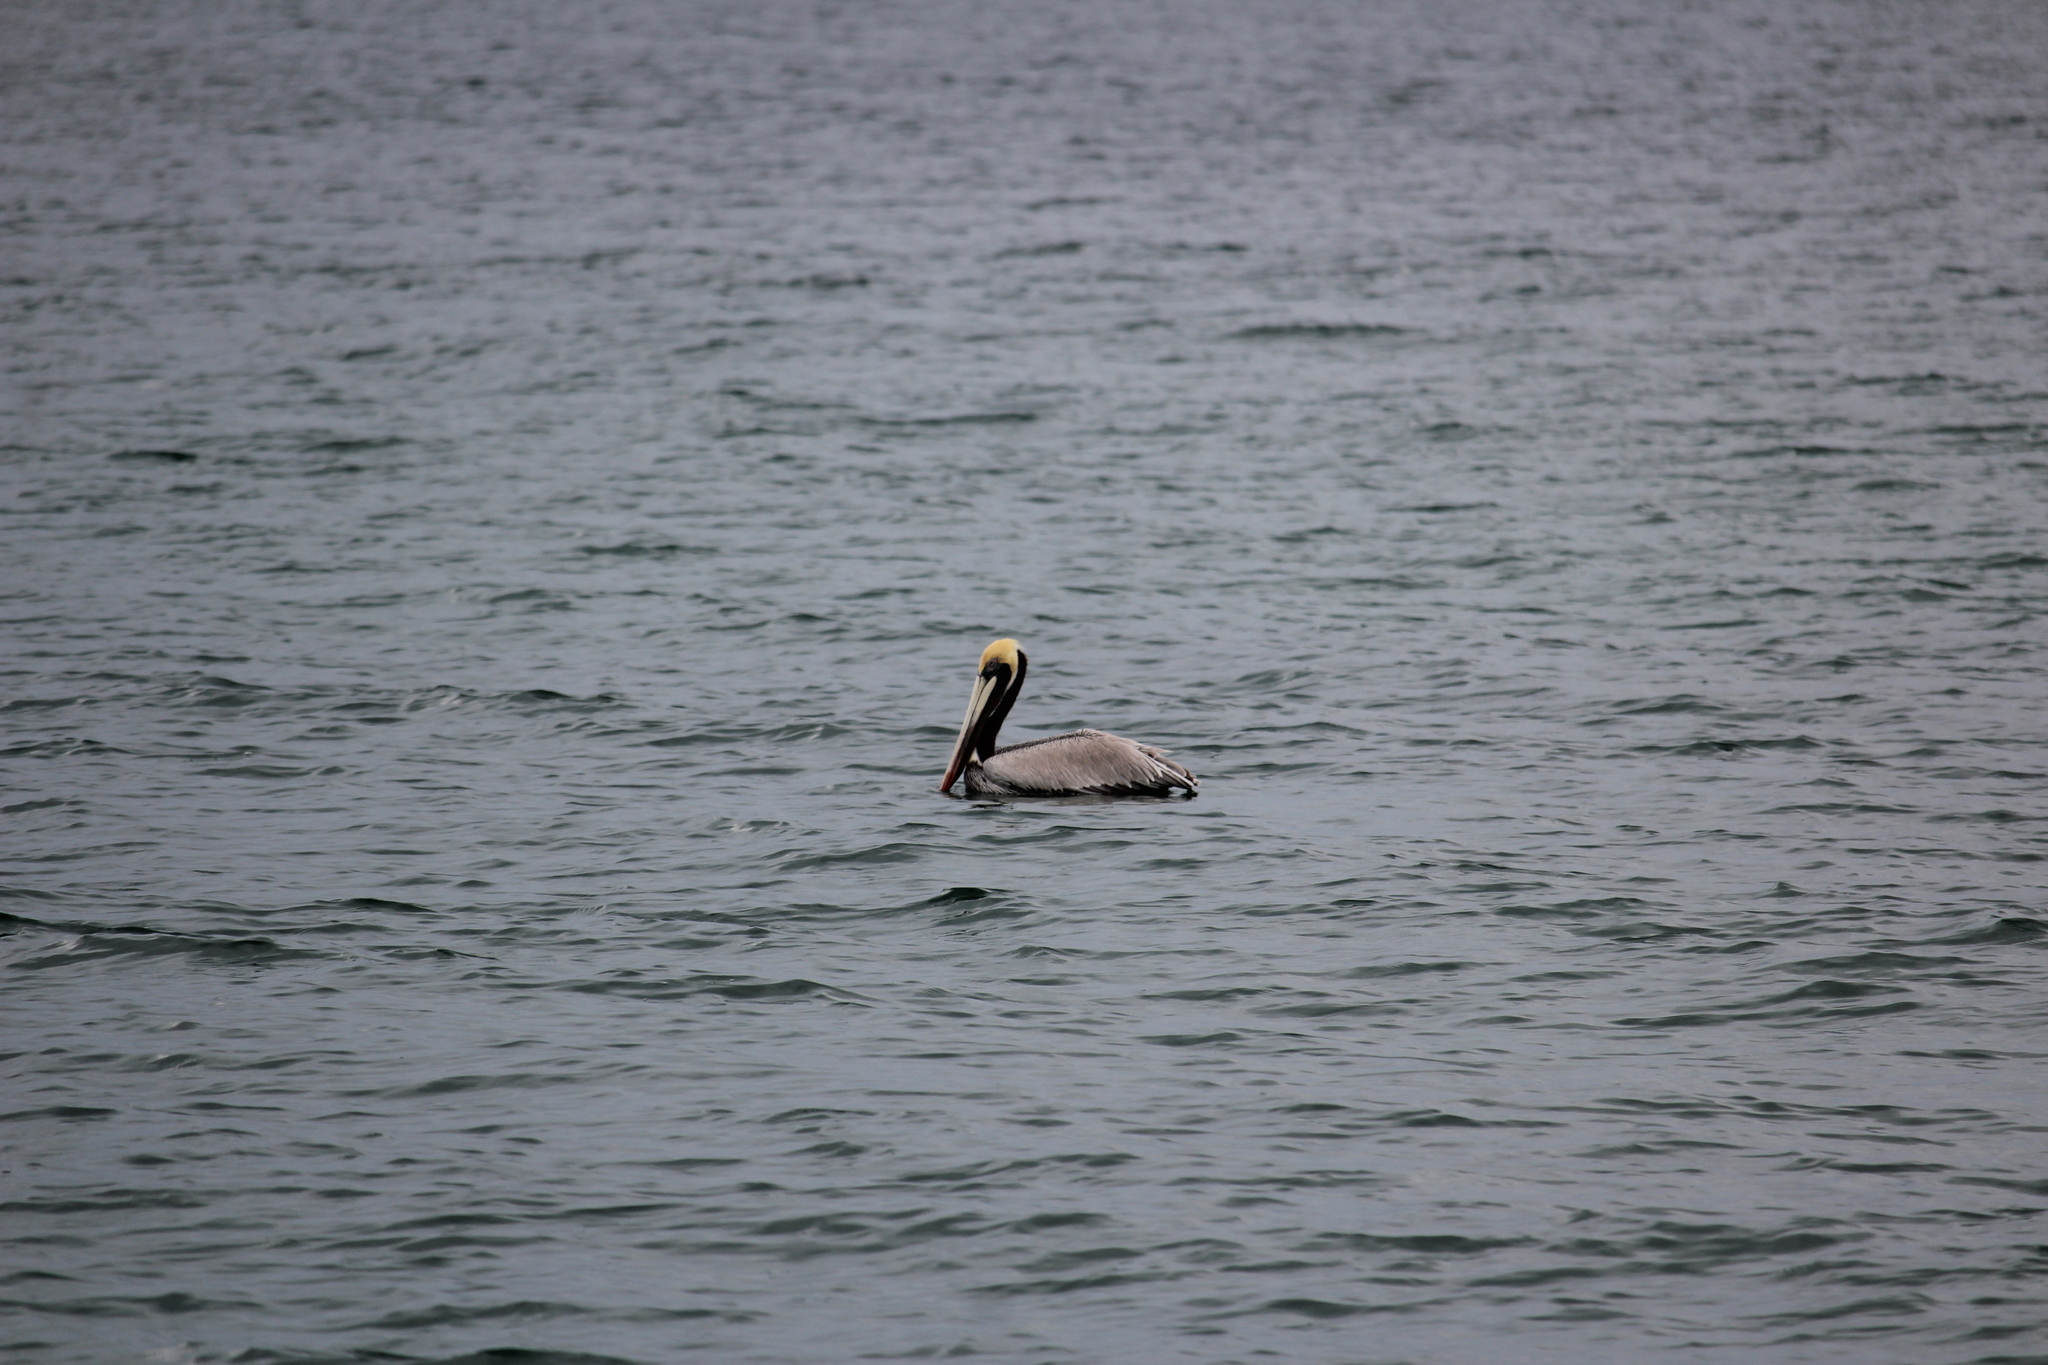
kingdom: Animalia
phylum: Chordata
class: Aves
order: Pelecaniformes
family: Pelecanidae
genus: Pelecanus
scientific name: Pelecanus occidentalis
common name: Brown pelican
